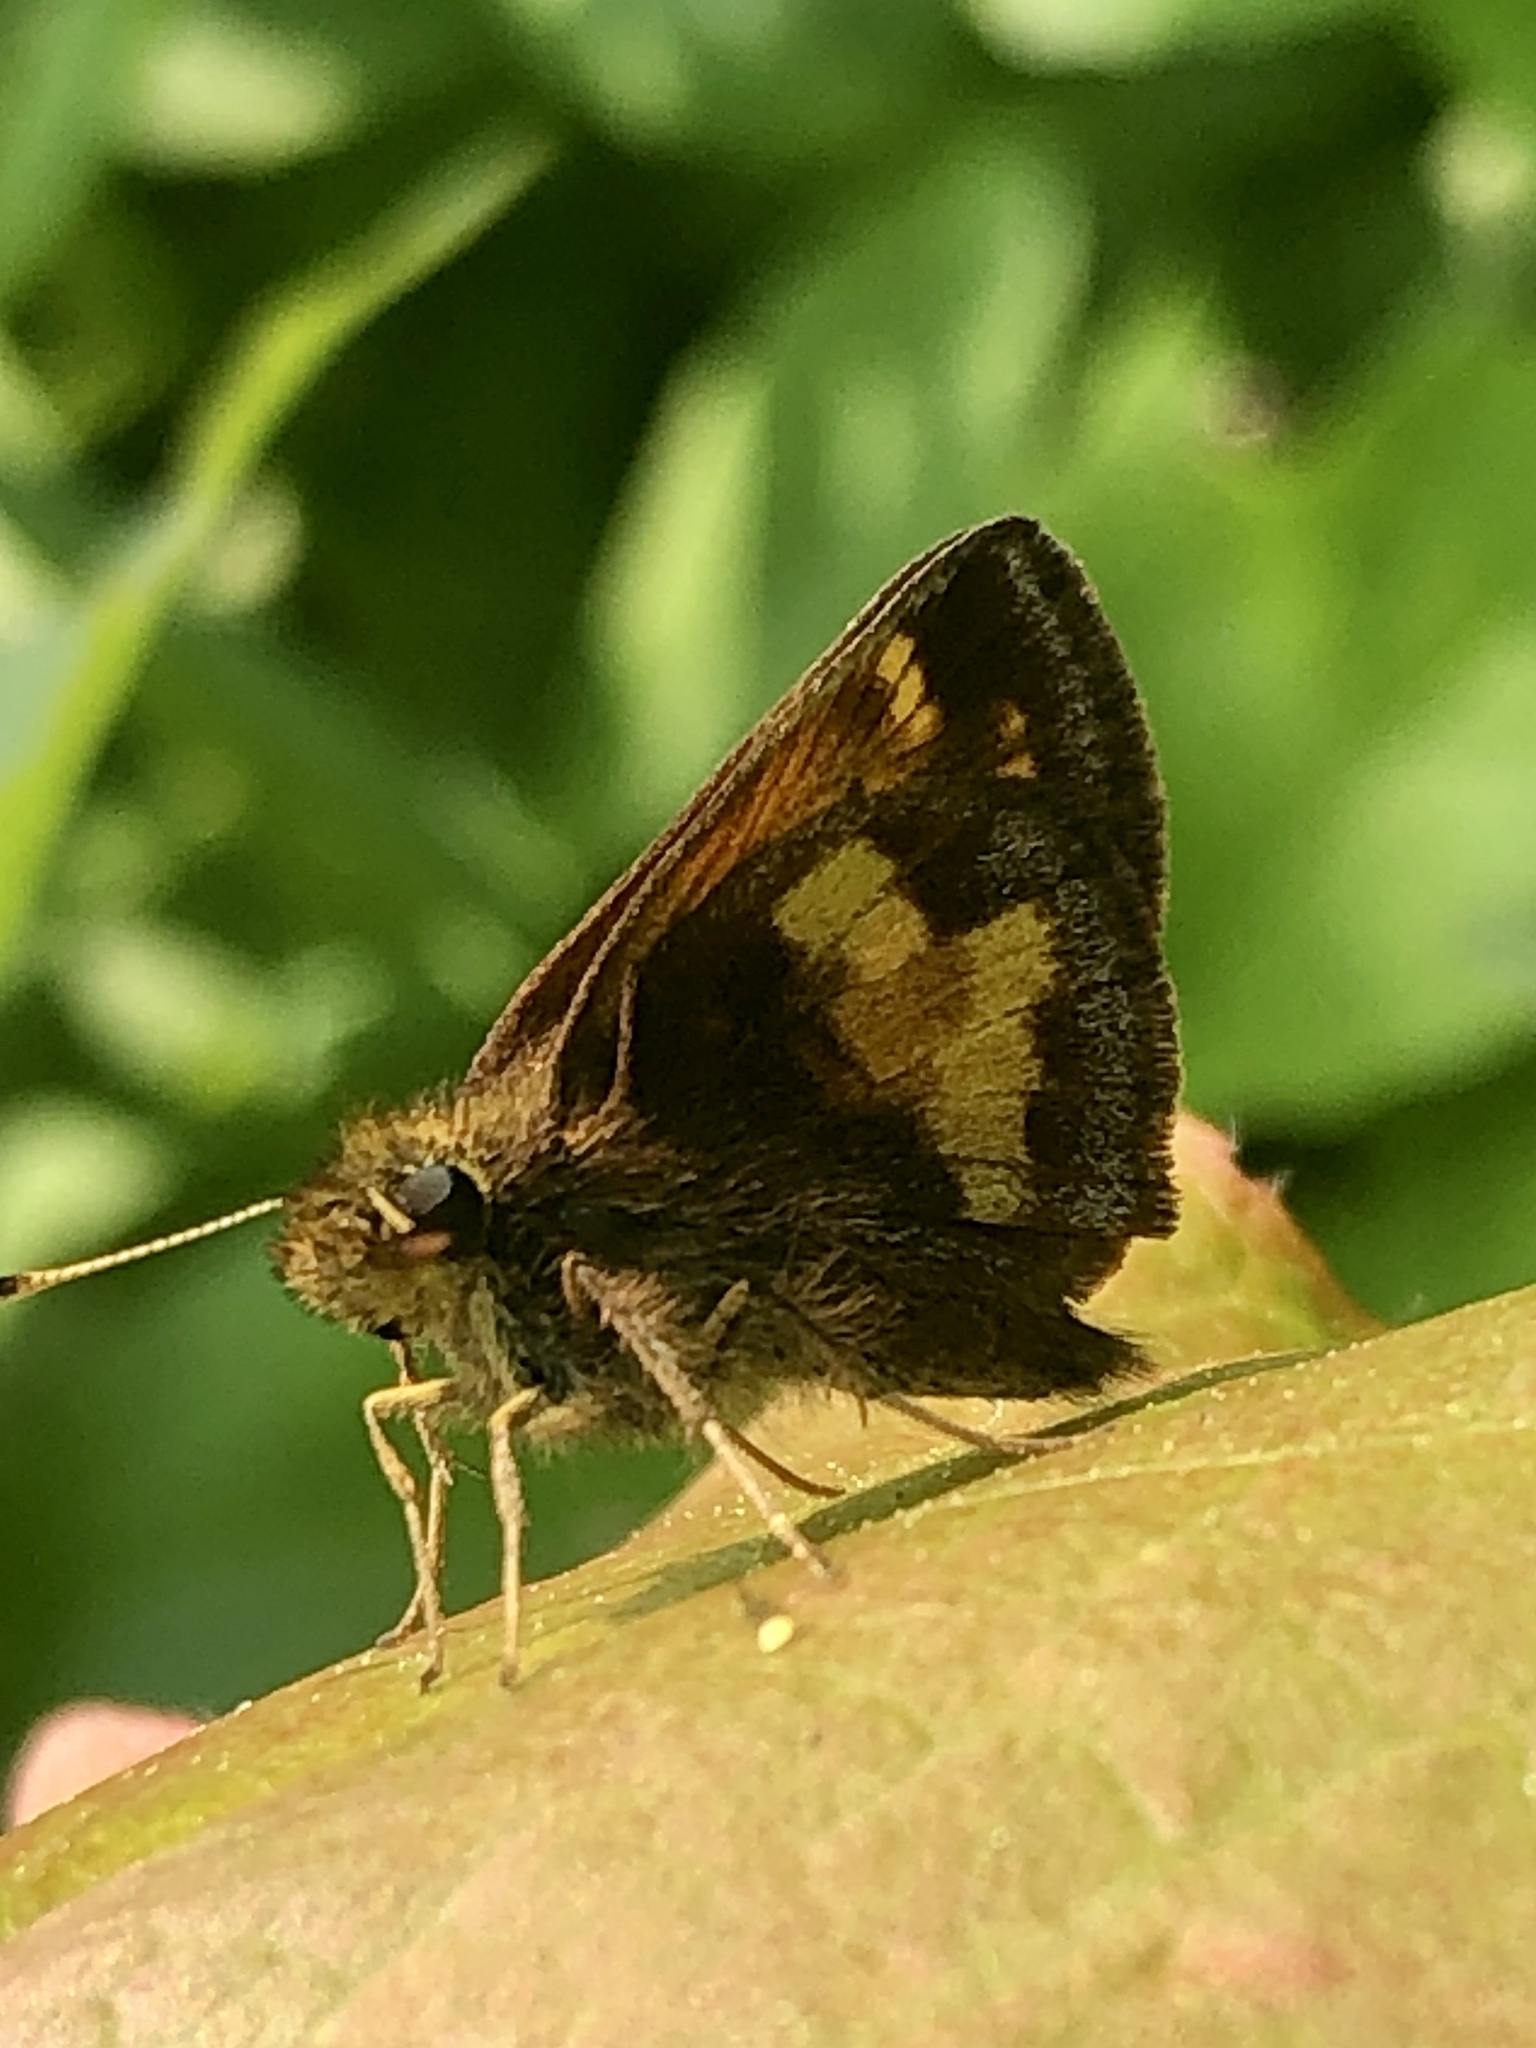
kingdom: Animalia
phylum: Arthropoda
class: Insecta
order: Lepidoptera
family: Hesperiidae
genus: Lon
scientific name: Lon hobomok
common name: Hobomok skipper
